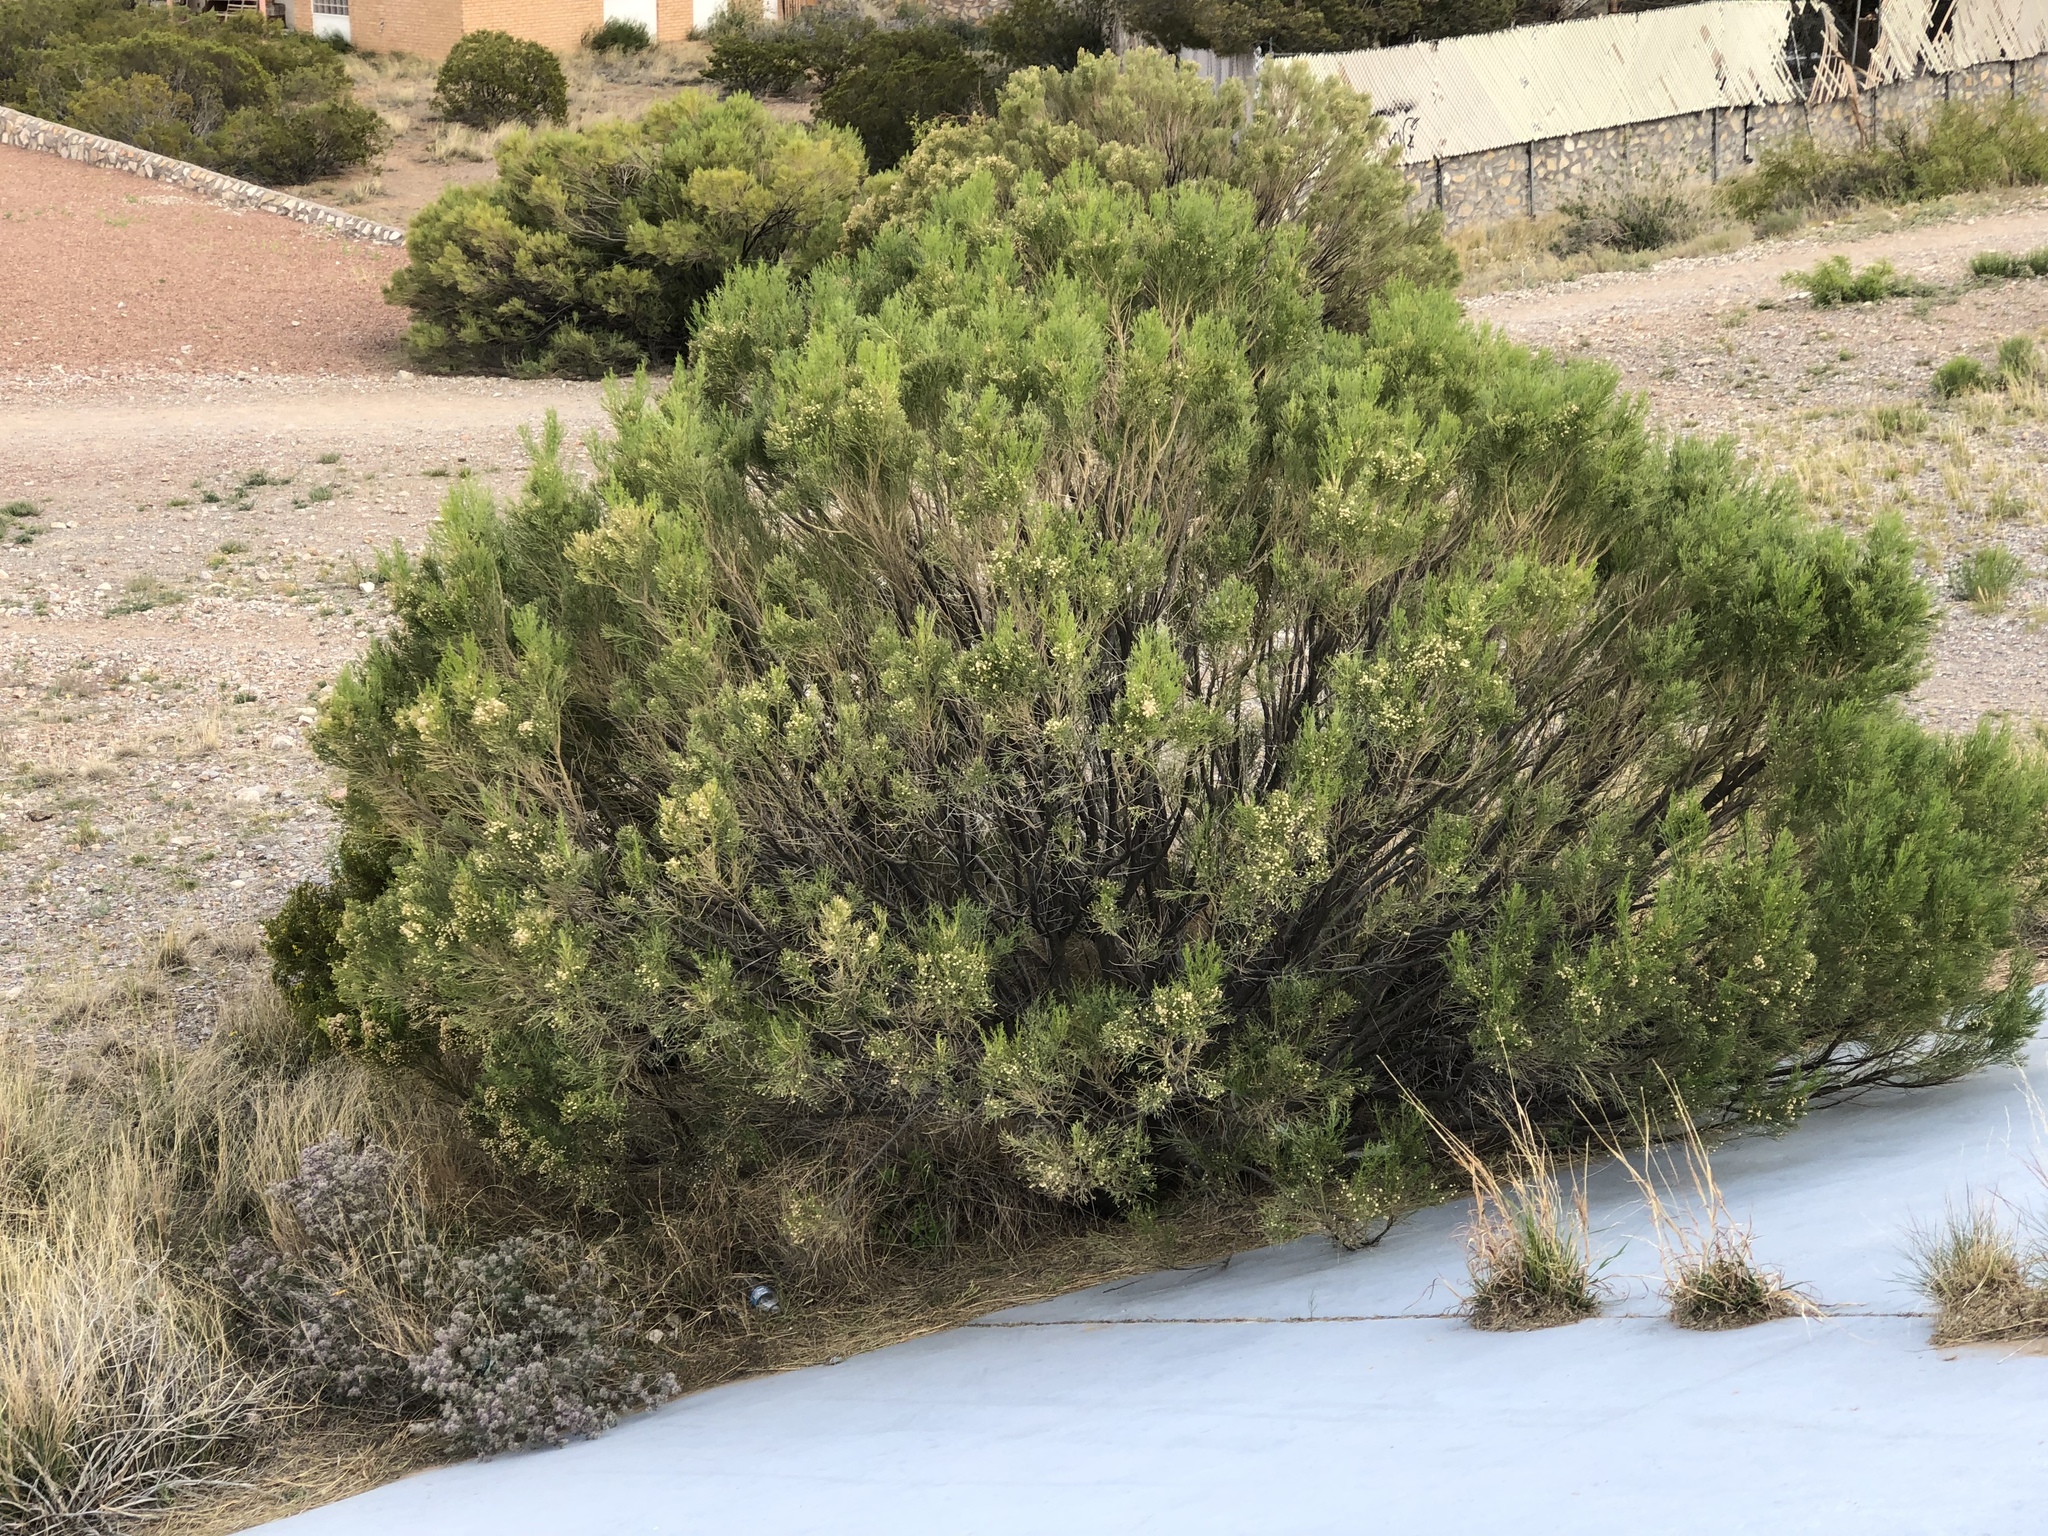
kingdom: Plantae
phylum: Tracheophyta
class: Magnoliopsida
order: Asterales
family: Asteraceae
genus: Baccharis
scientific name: Baccharis sarothroides
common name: Desert-broom
